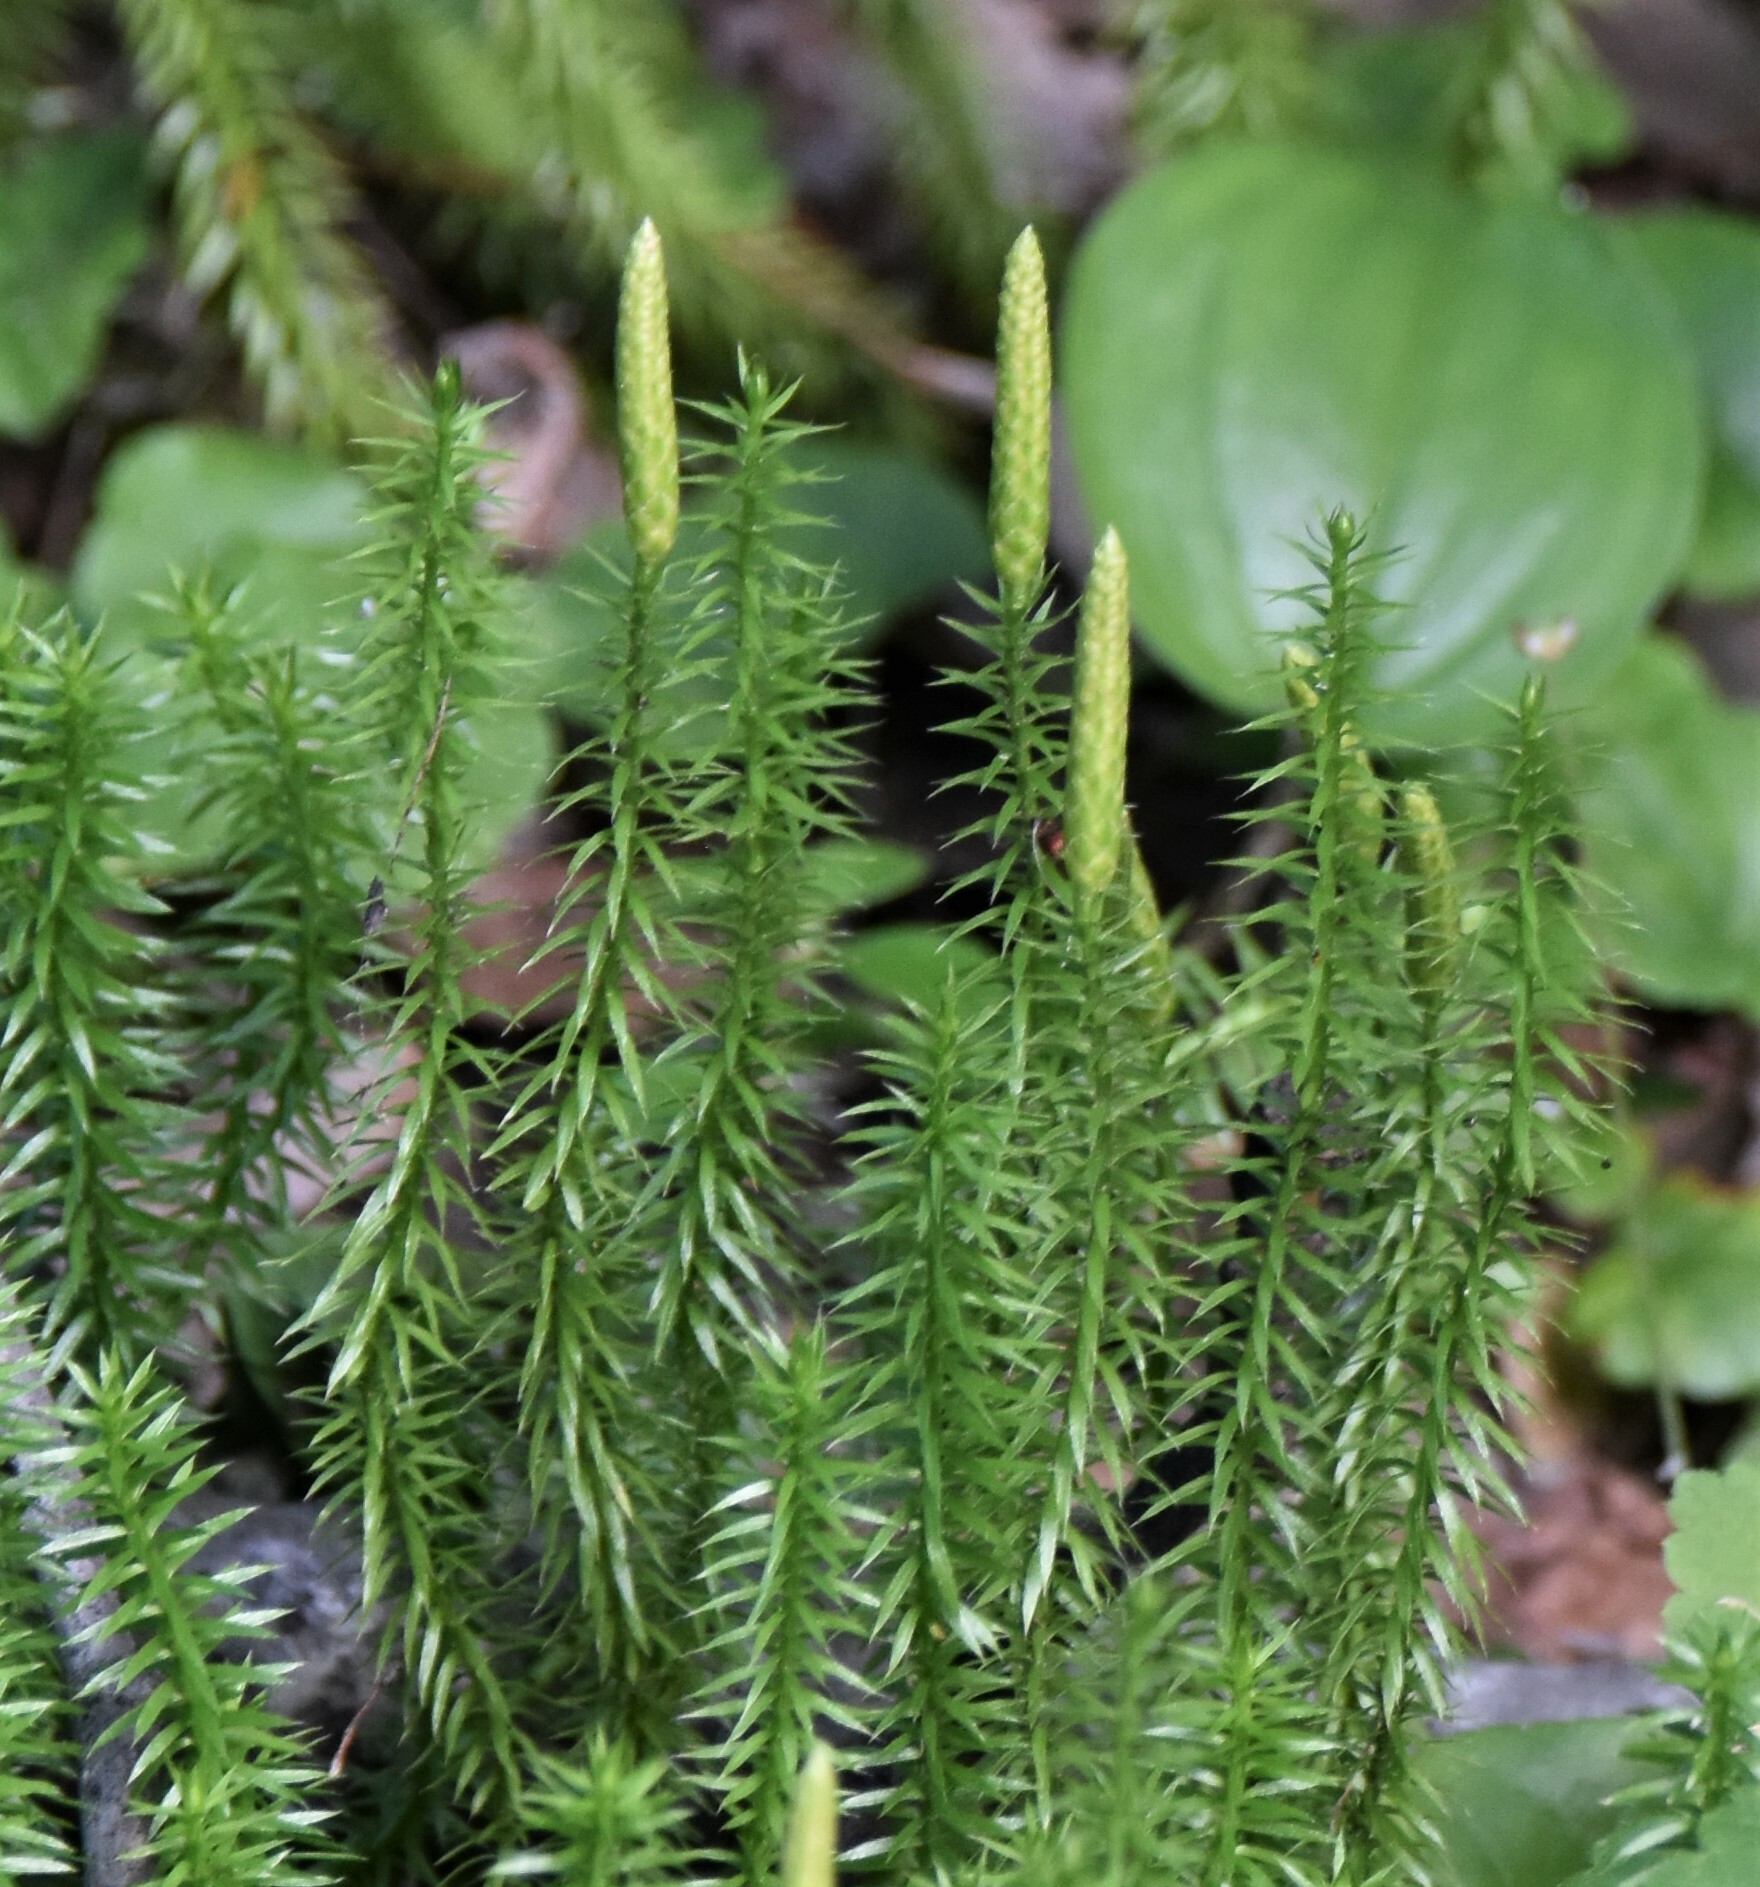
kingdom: Plantae
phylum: Tracheophyta
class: Lycopodiopsida
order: Lycopodiales
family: Lycopodiaceae
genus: Spinulum
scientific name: Spinulum annotinum
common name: Interrupted club-moss
